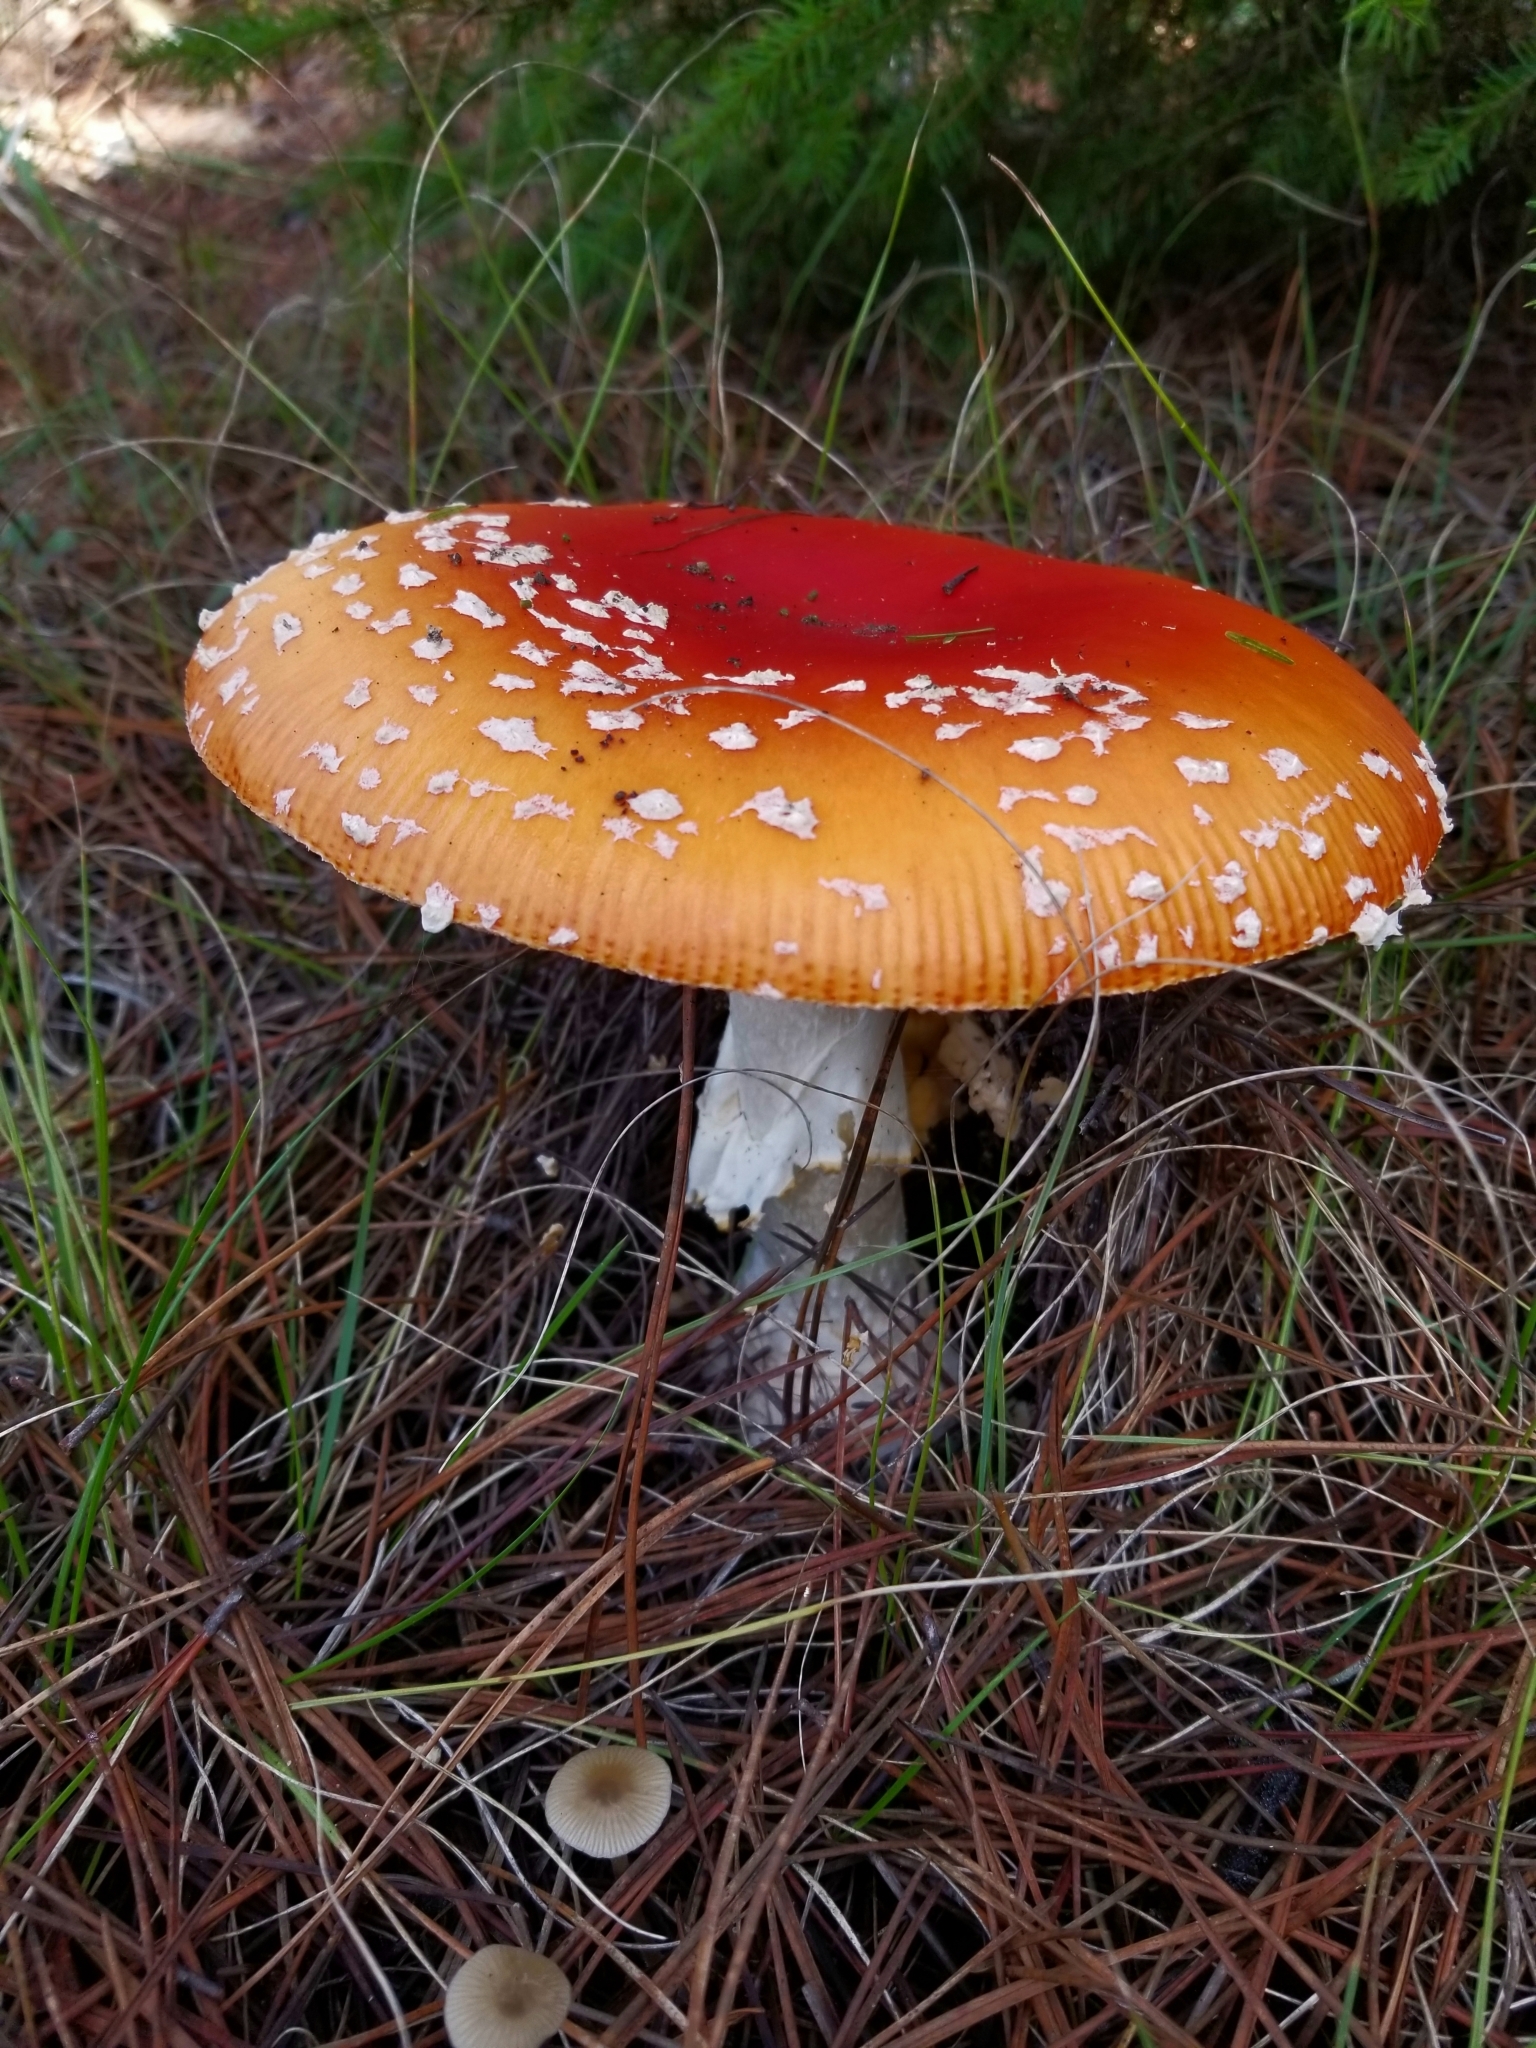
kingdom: Fungi
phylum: Basidiomycota
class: Agaricomycetes
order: Agaricales
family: Amanitaceae
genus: Amanita
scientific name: Amanita muscaria
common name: Fly agaric
